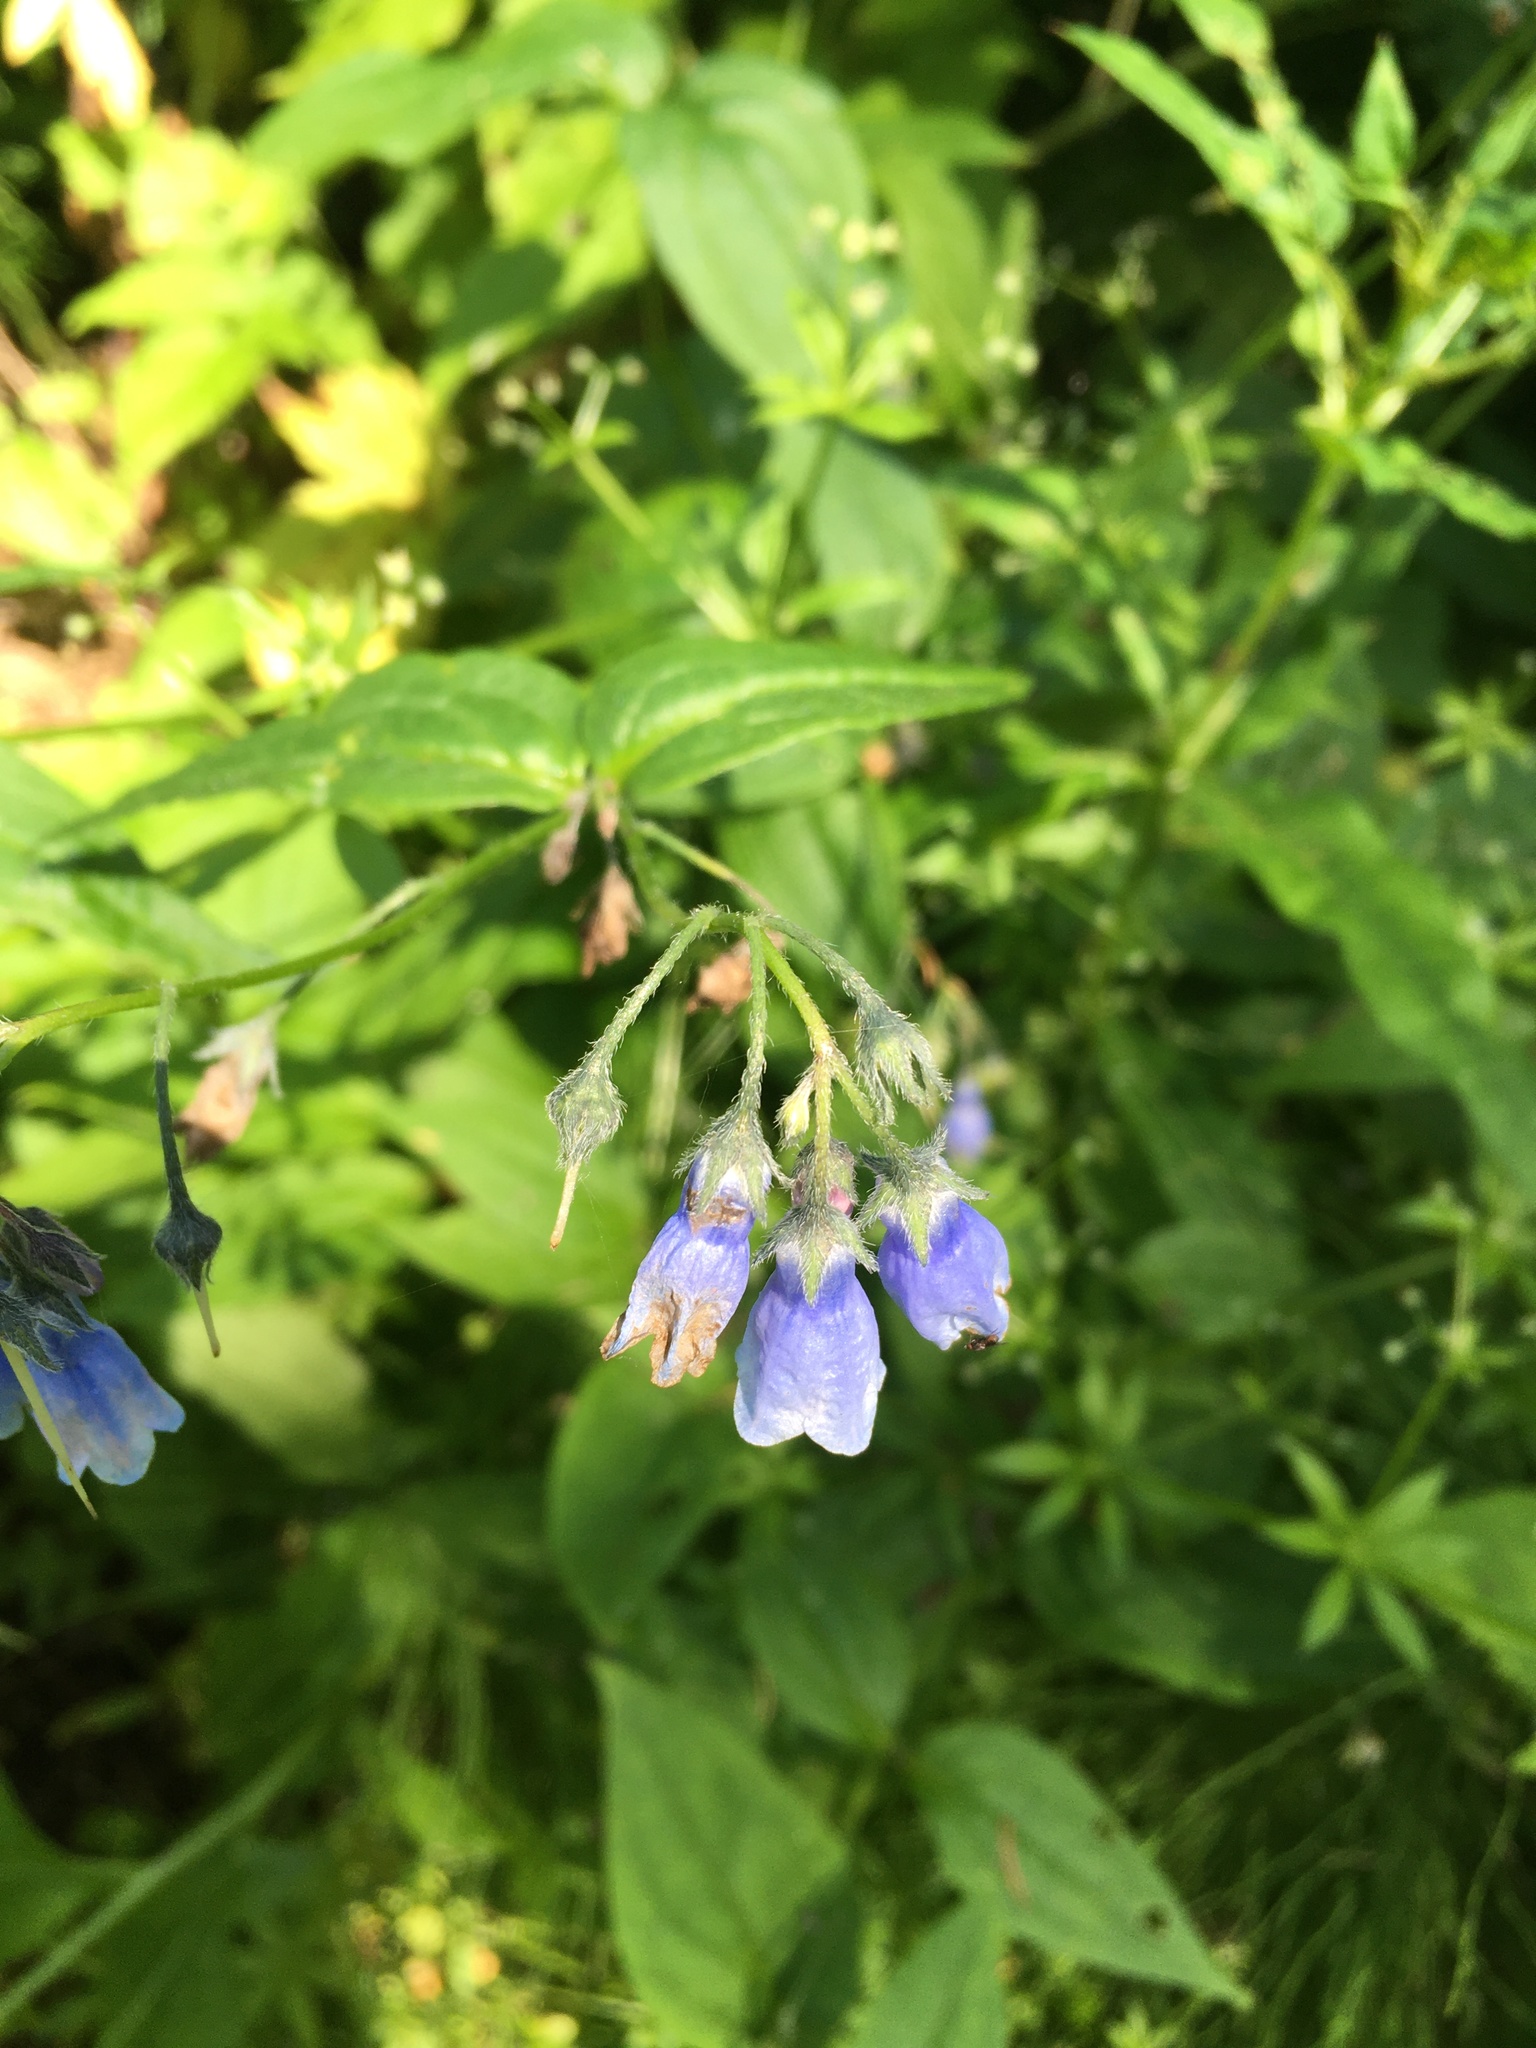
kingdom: Plantae
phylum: Tracheophyta
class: Magnoliopsida
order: Boraginales
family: Boraginaceae
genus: Mertensia
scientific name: Mertensia paniculata
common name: Panicled bluebells
